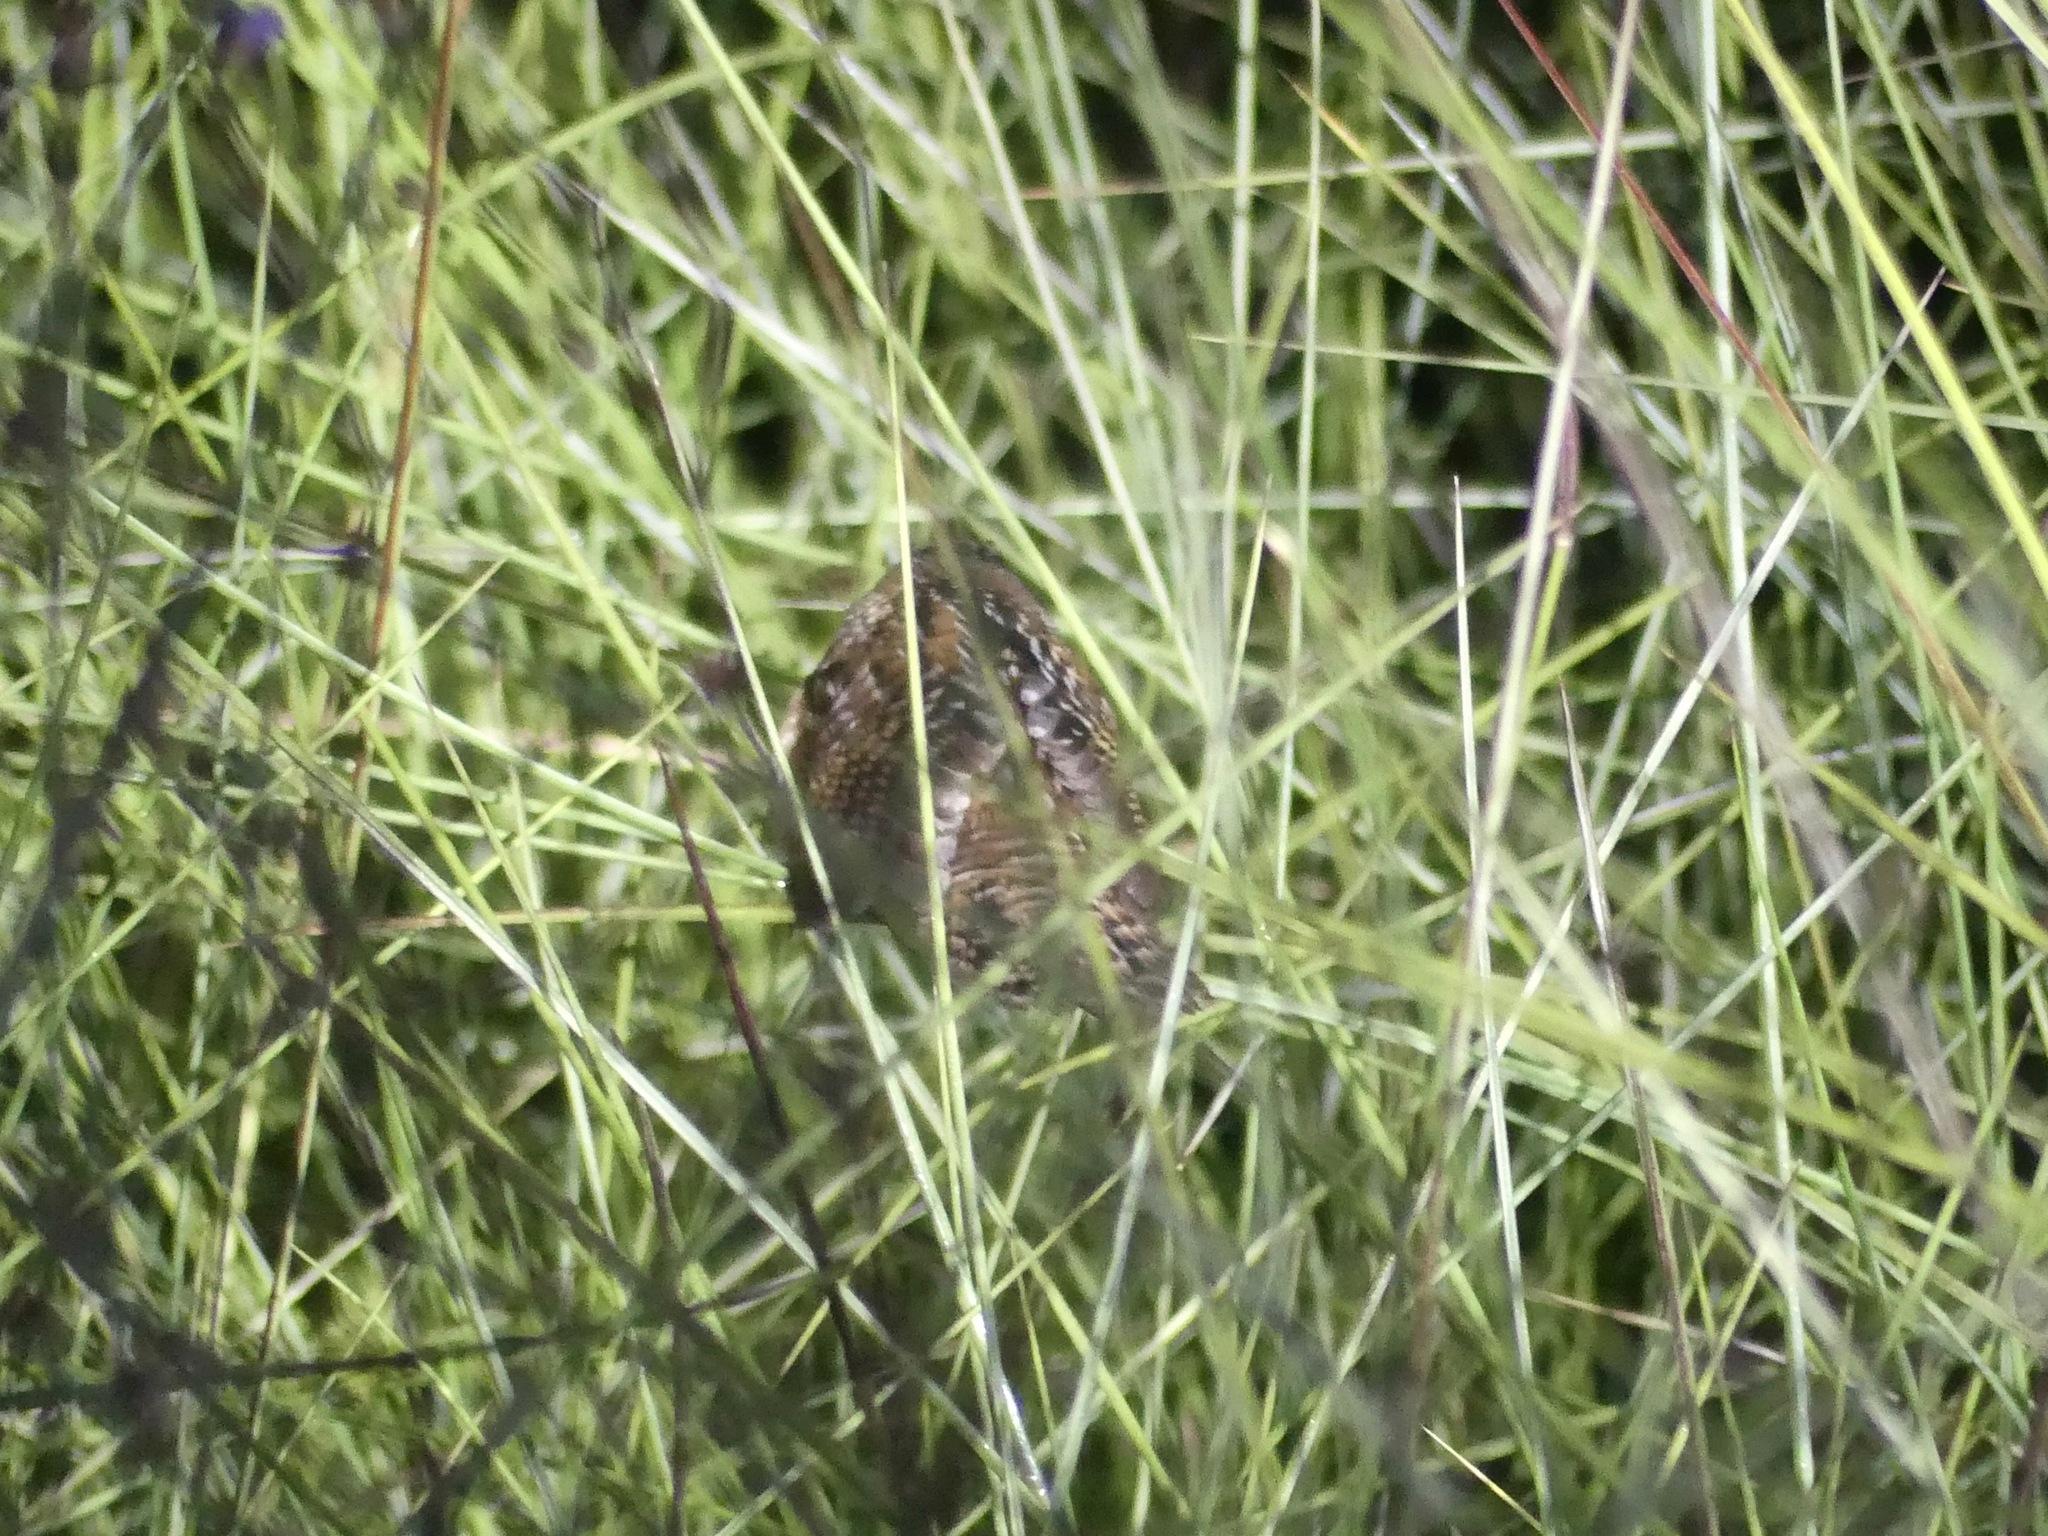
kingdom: Animalia
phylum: Chordata
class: Aves
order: Passeriformes
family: Troglodytidae
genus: Cistothorus
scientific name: Cistothorus platensis
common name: Sedge wren
